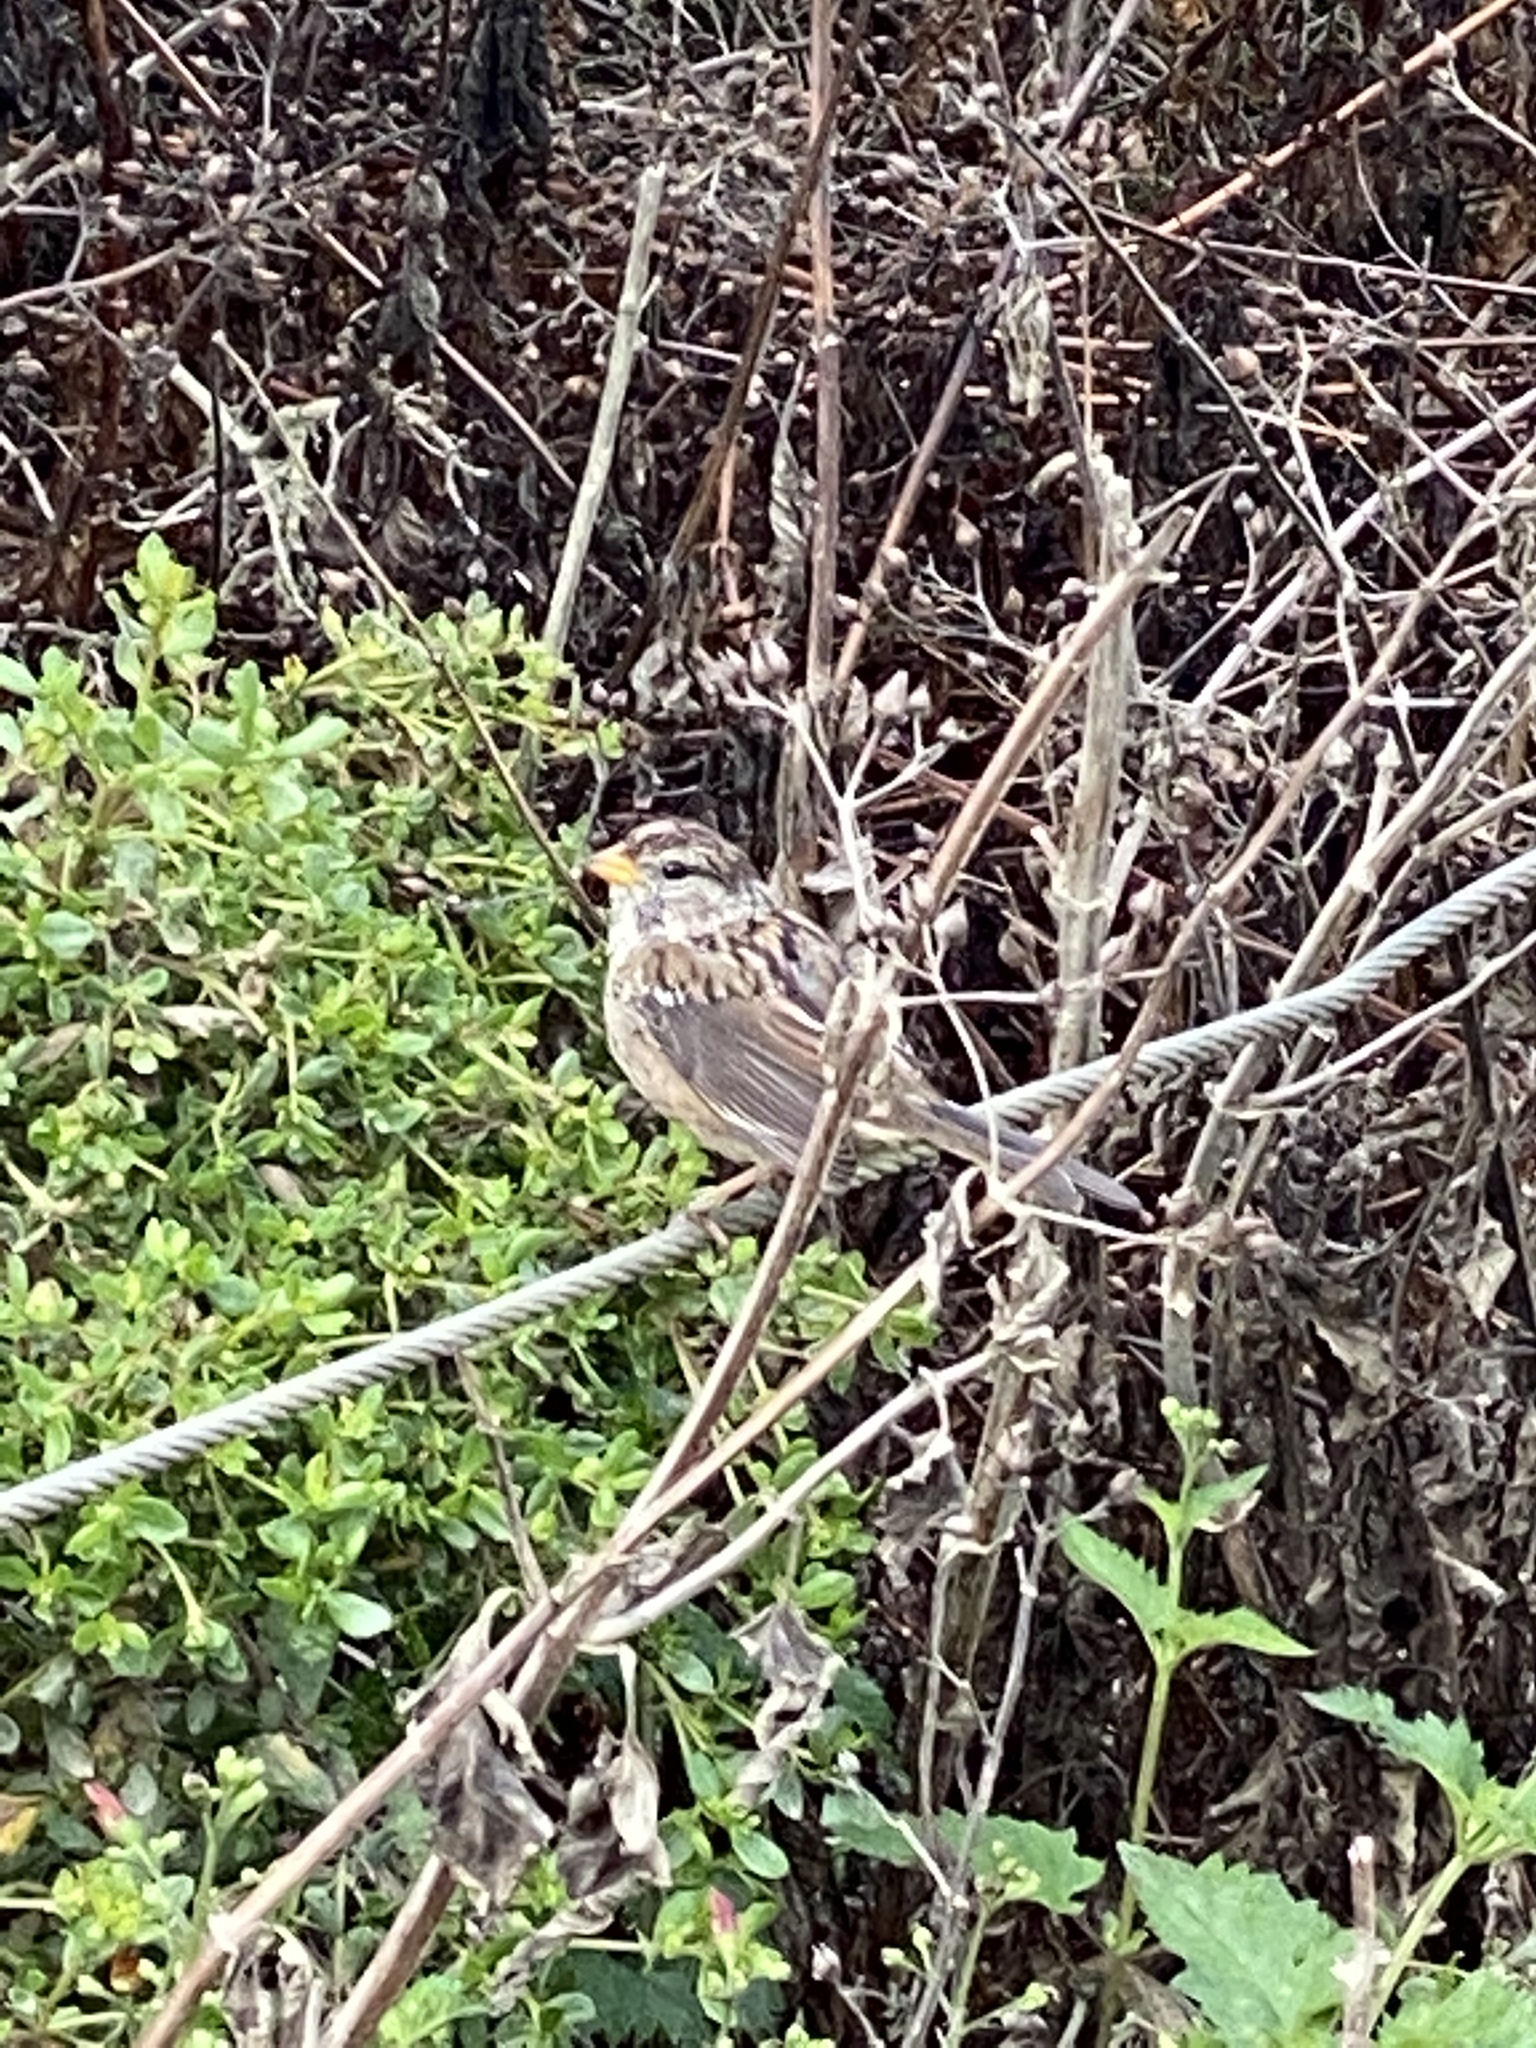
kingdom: Animalia
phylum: Chordata
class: Aves
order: Passeriformes
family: Passerellidae
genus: Zonotrichia
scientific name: Zonotrichia leucophrys
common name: White-crowned sparrow
